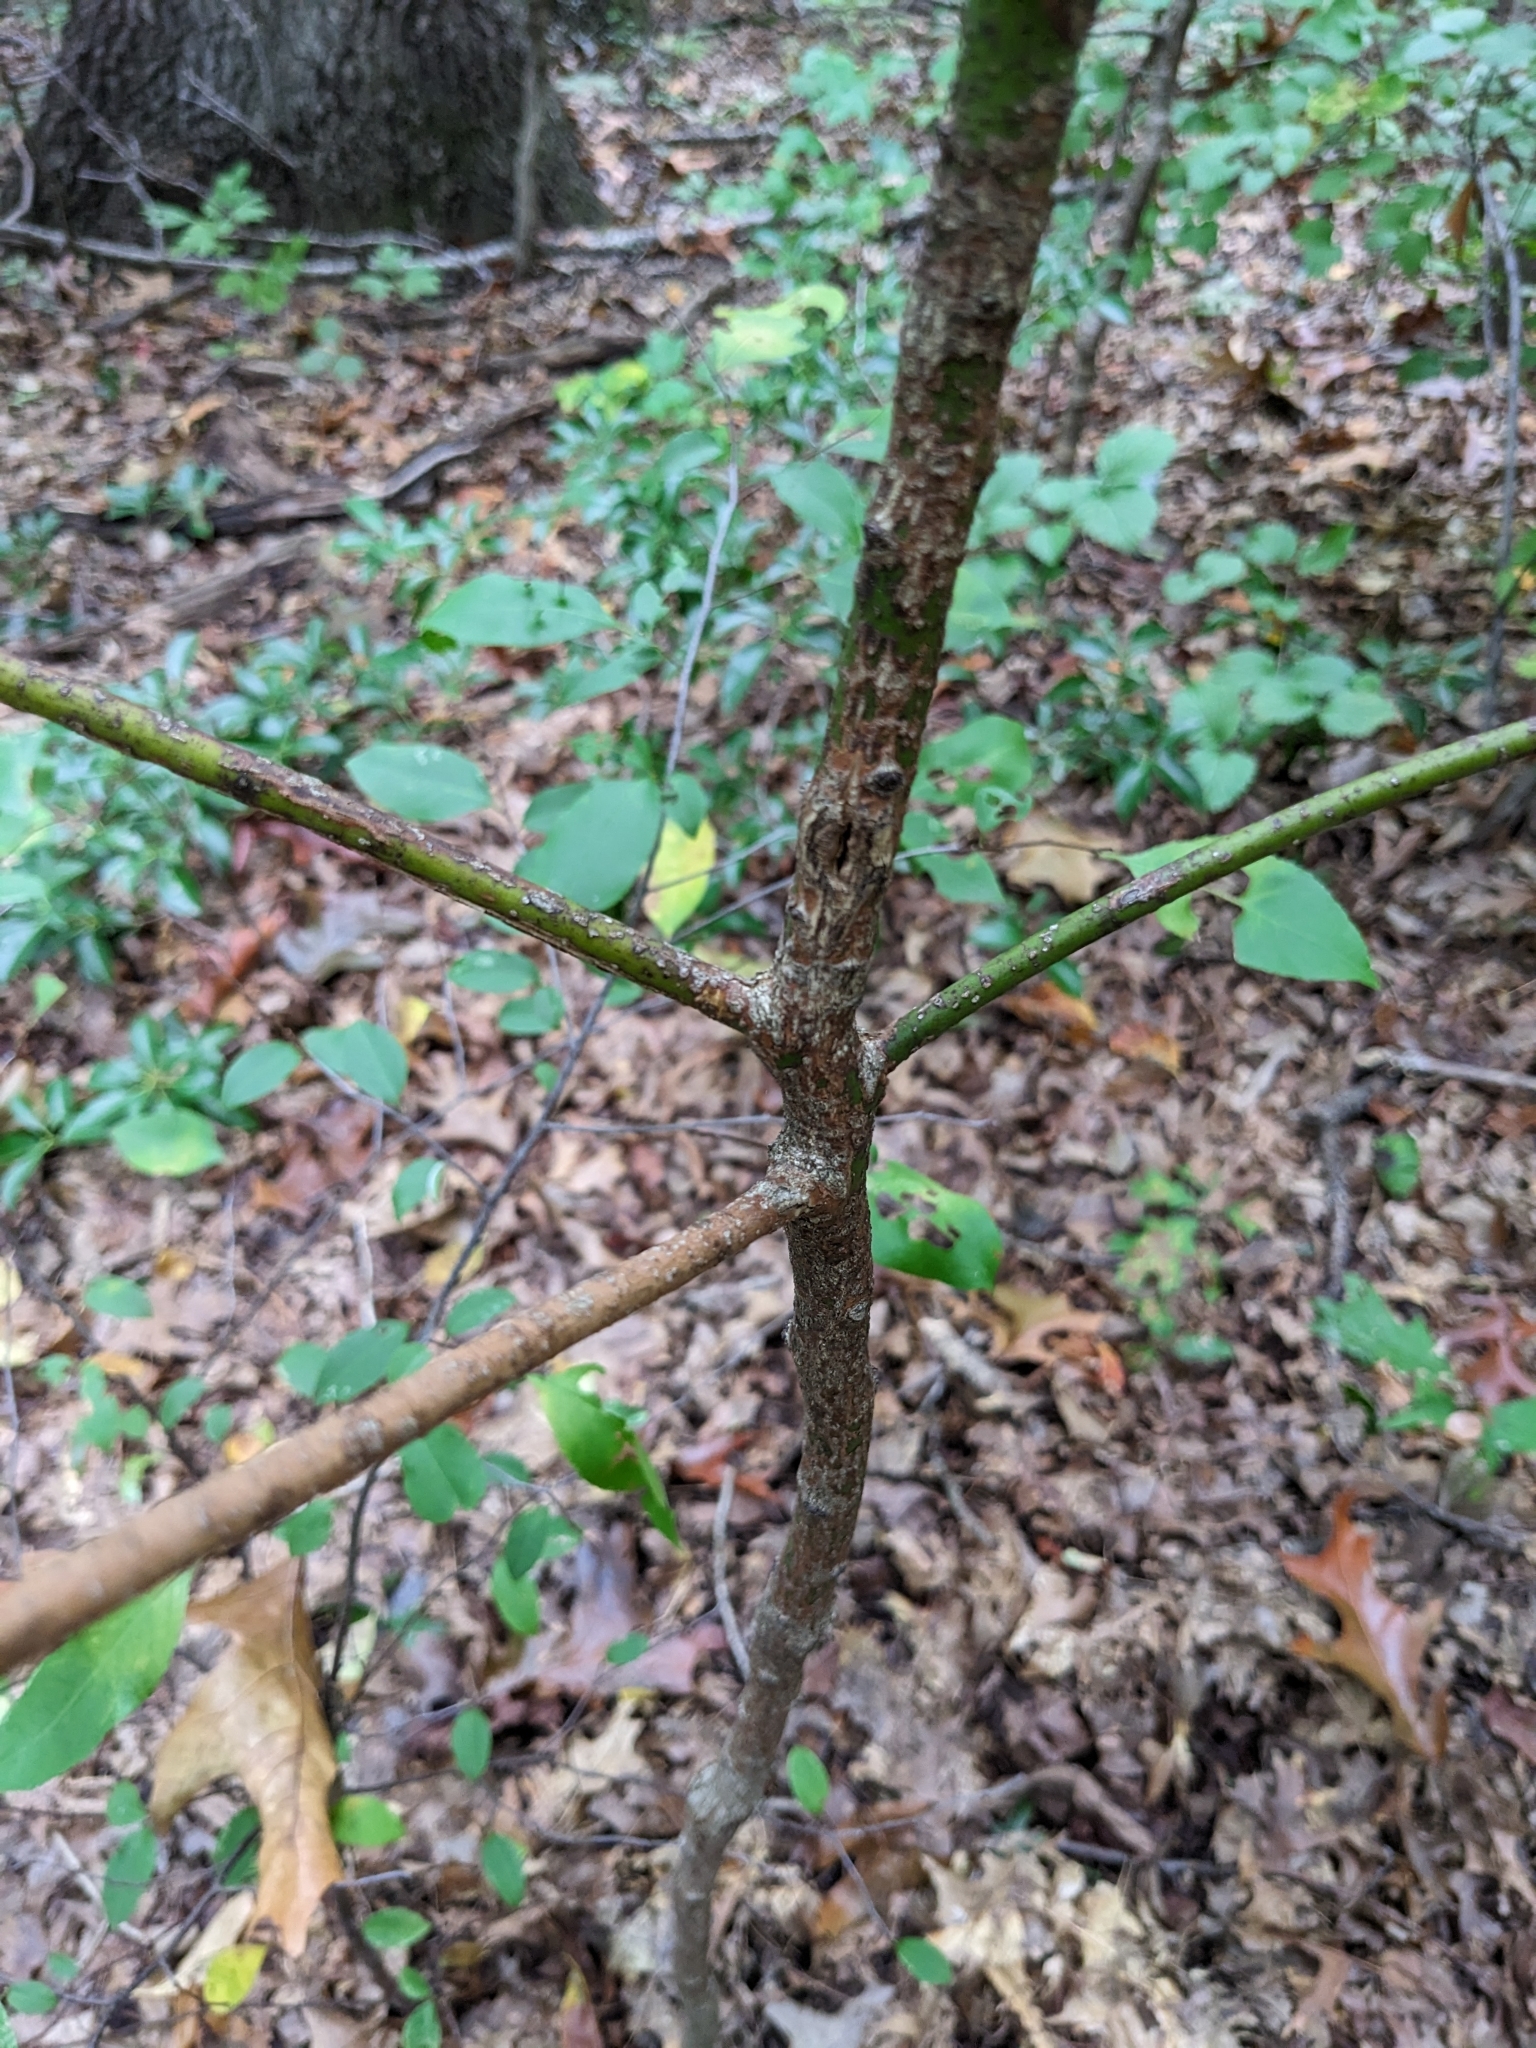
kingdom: Plantae
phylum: Tracheophyta
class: Magnoliopsida
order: Laurales
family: Lauraceae
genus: Sassafras
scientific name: Sassafras albidum
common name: Sassafras
